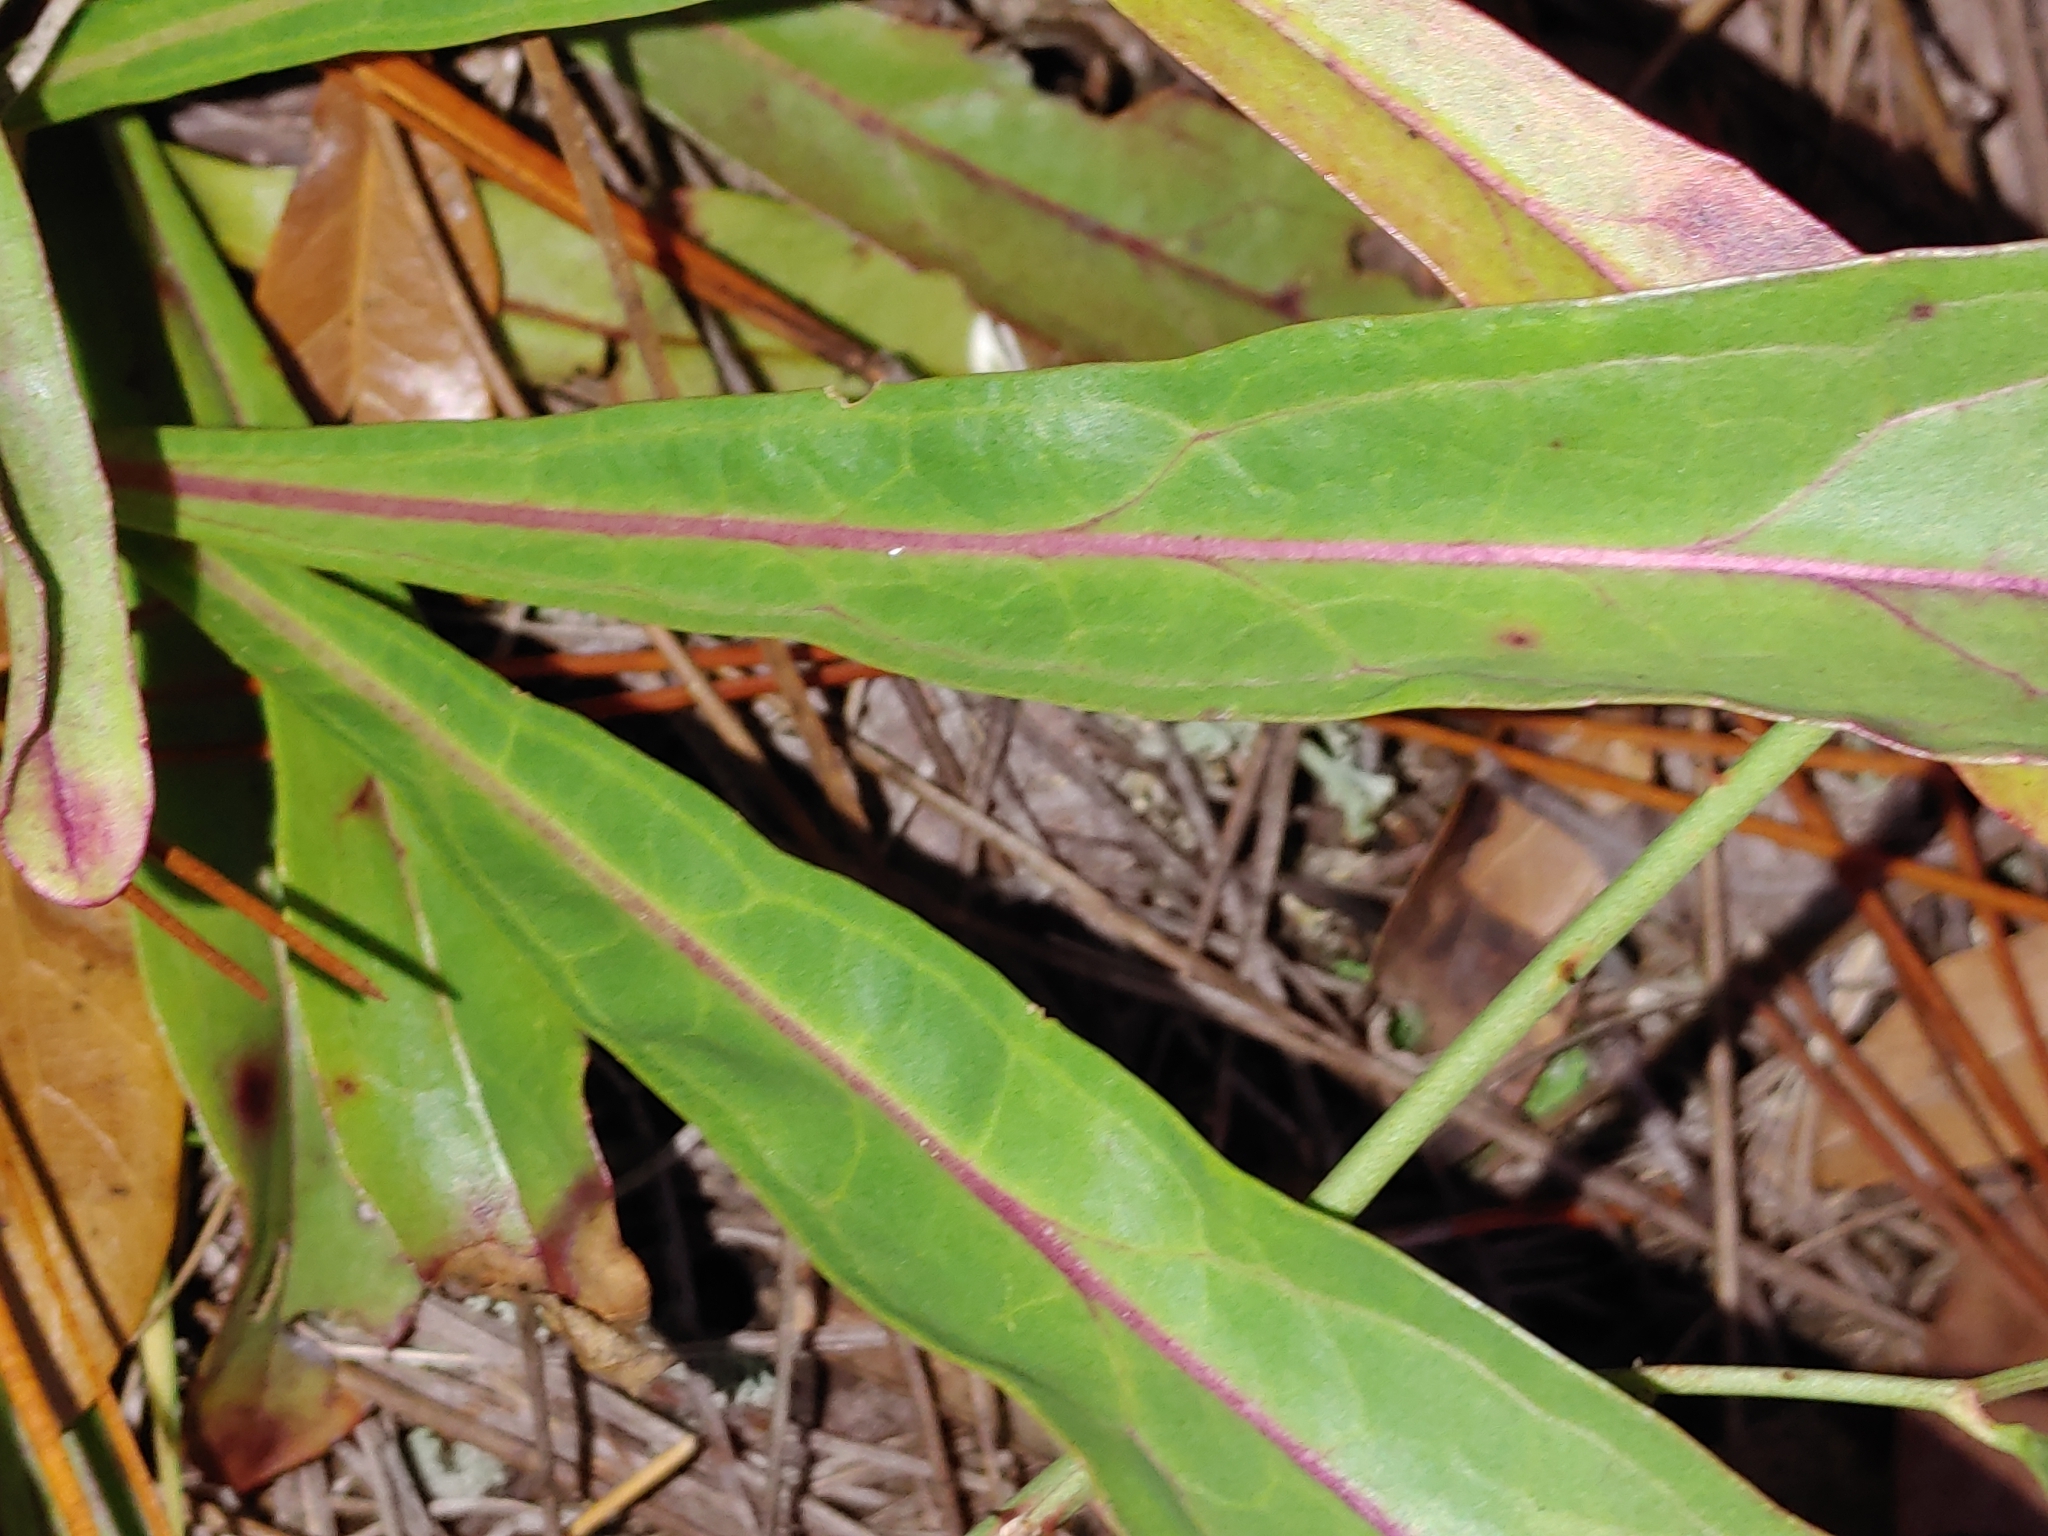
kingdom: Plantae
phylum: Tracheophyta
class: Magnoliopsida
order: Lamiales
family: Plantaginaceae
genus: Penstemon
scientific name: Penstemon multiflorus
